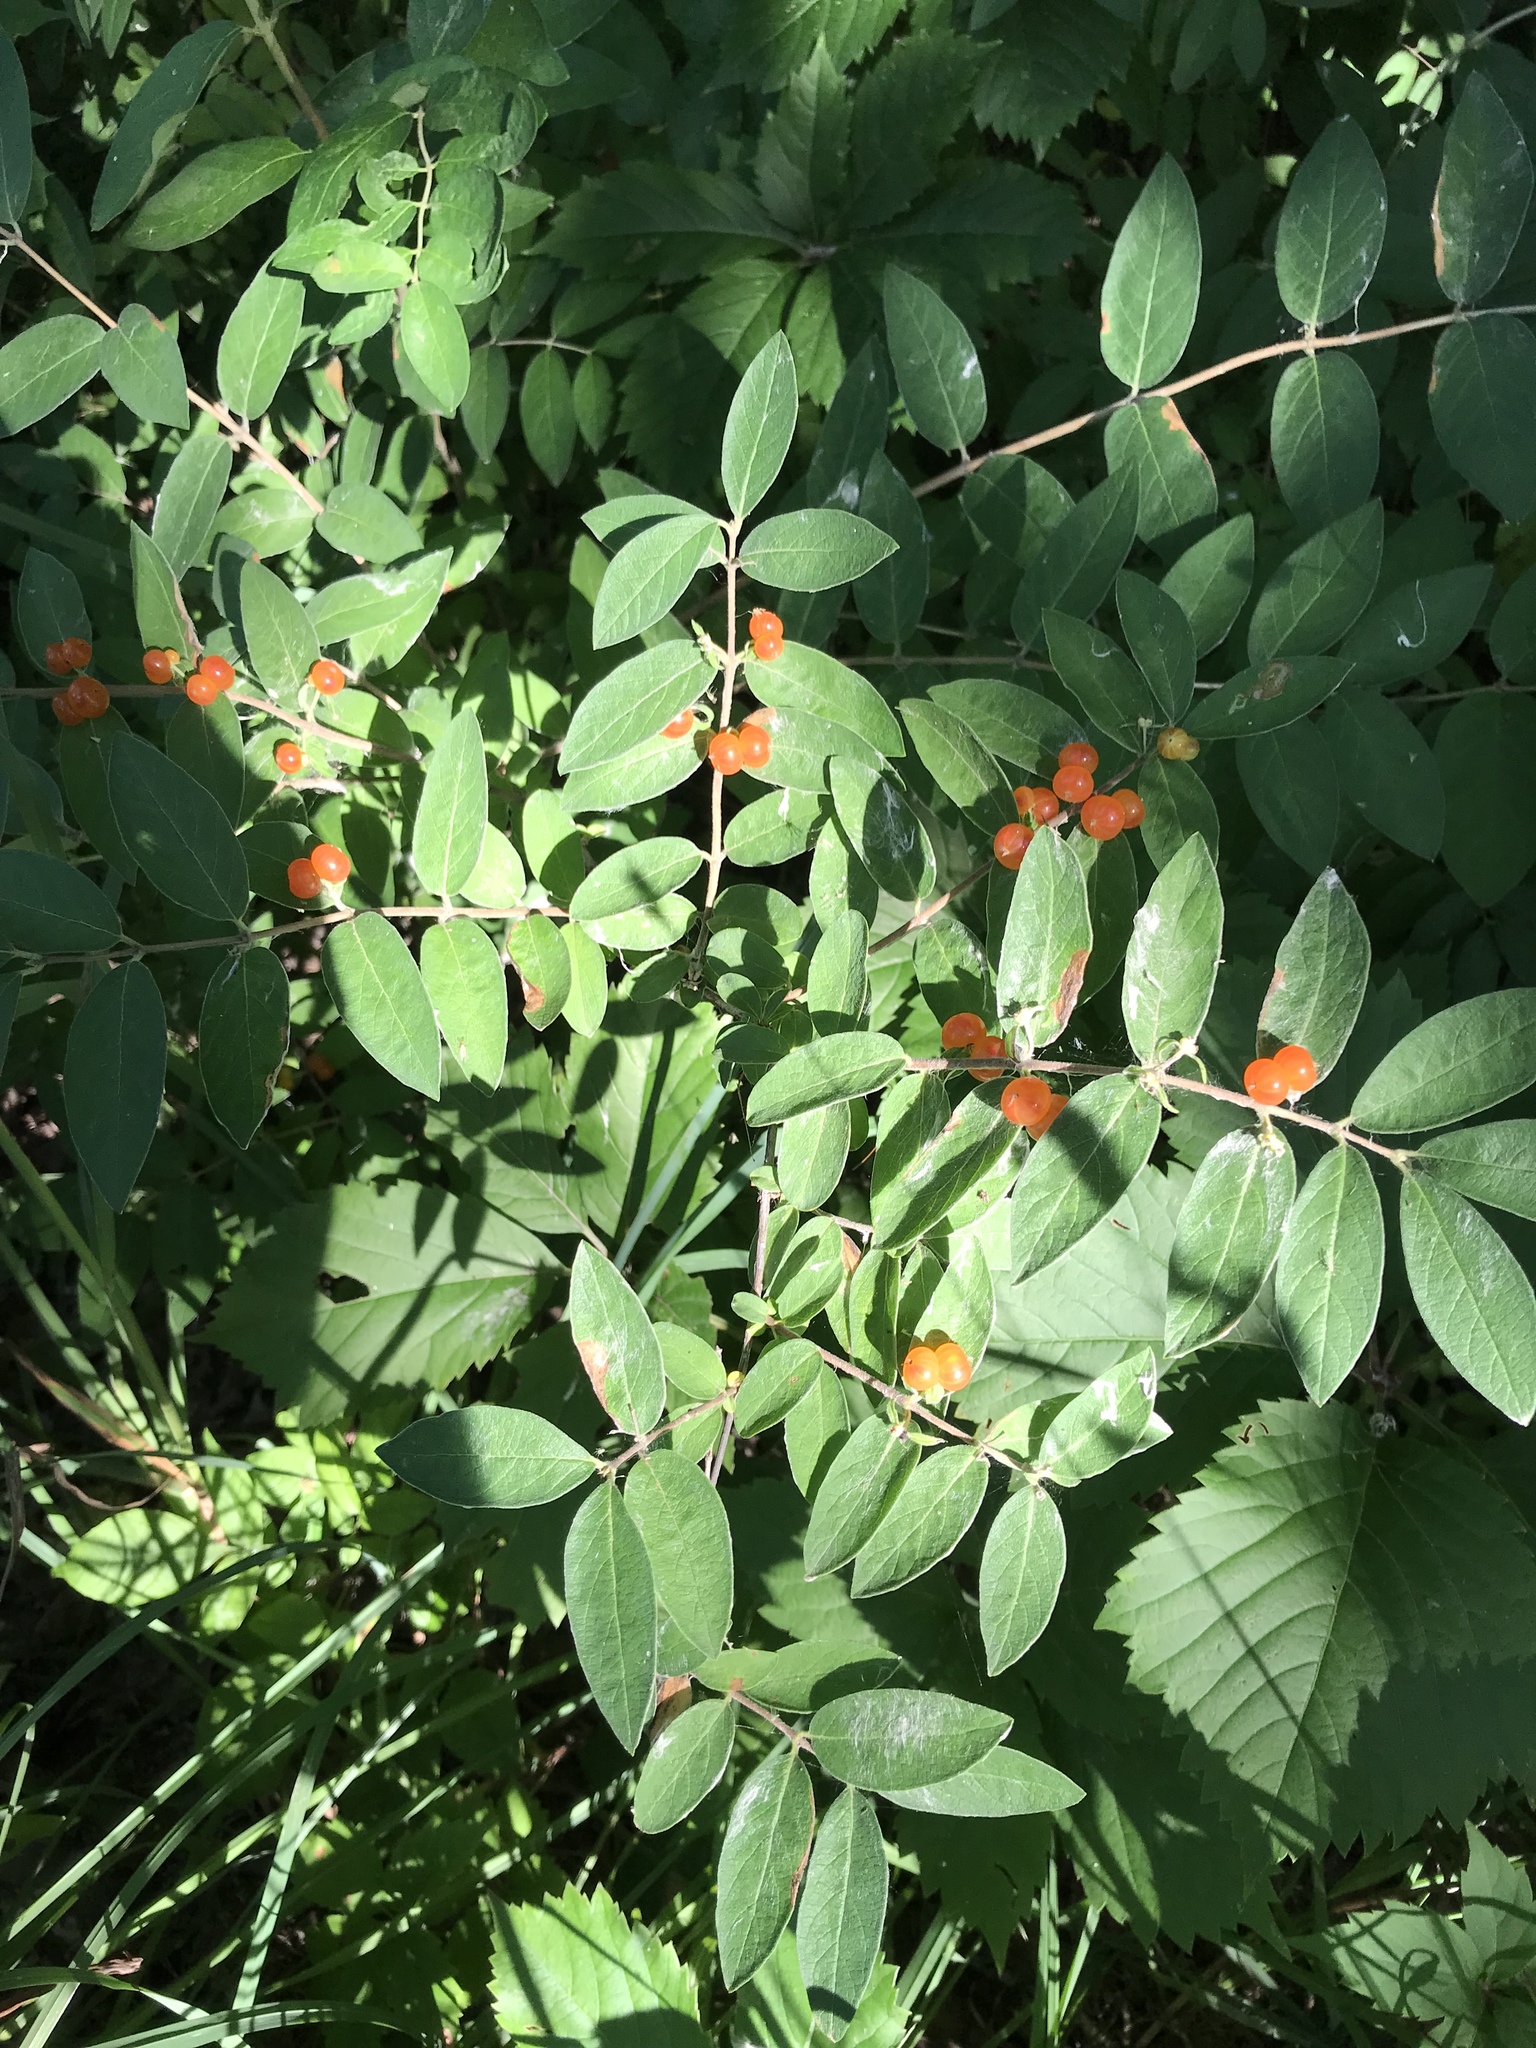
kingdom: Plantae
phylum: Tracheophyta
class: Magnoliopsida
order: Dipsacales
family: Caprifoliaceae
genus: Lonicera
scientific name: Lonicera morrowii
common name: Morrow's honeysuckle
